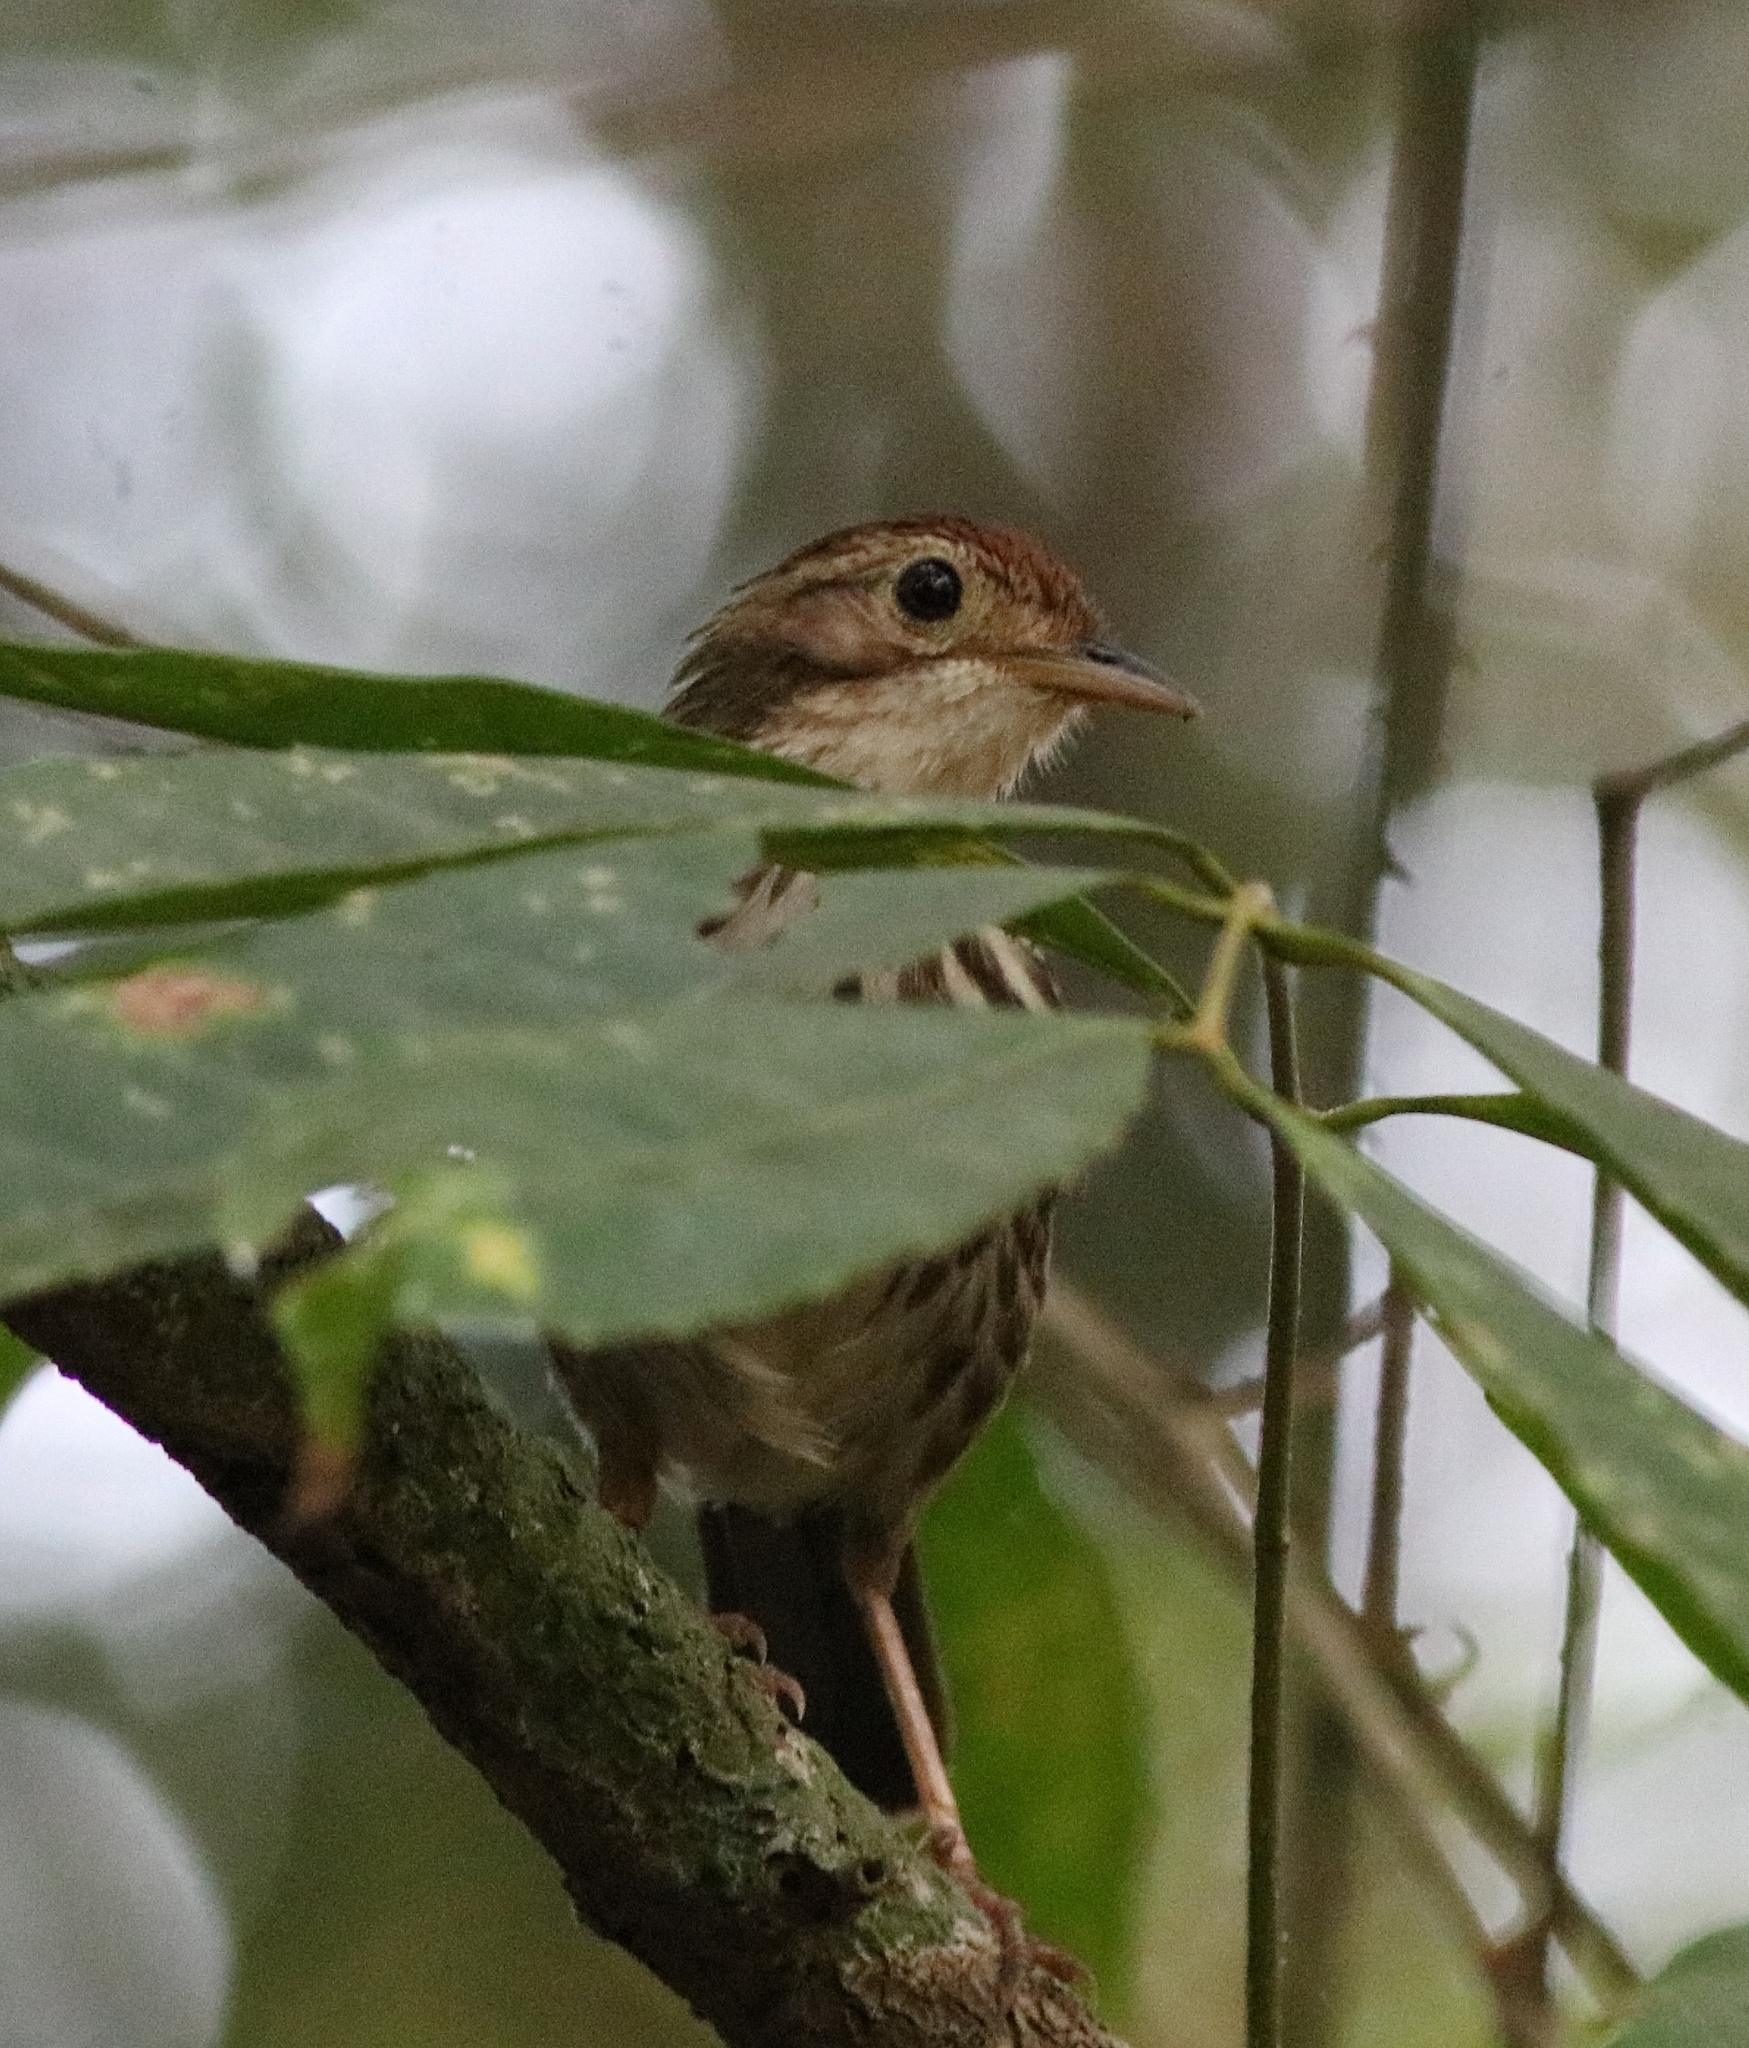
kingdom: Animalia
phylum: Chordata
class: Aves
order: Passeriformes
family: Pellorneidae
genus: Pellorneum
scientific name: Pellorneum ruficeps
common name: Puff-throated babbler
